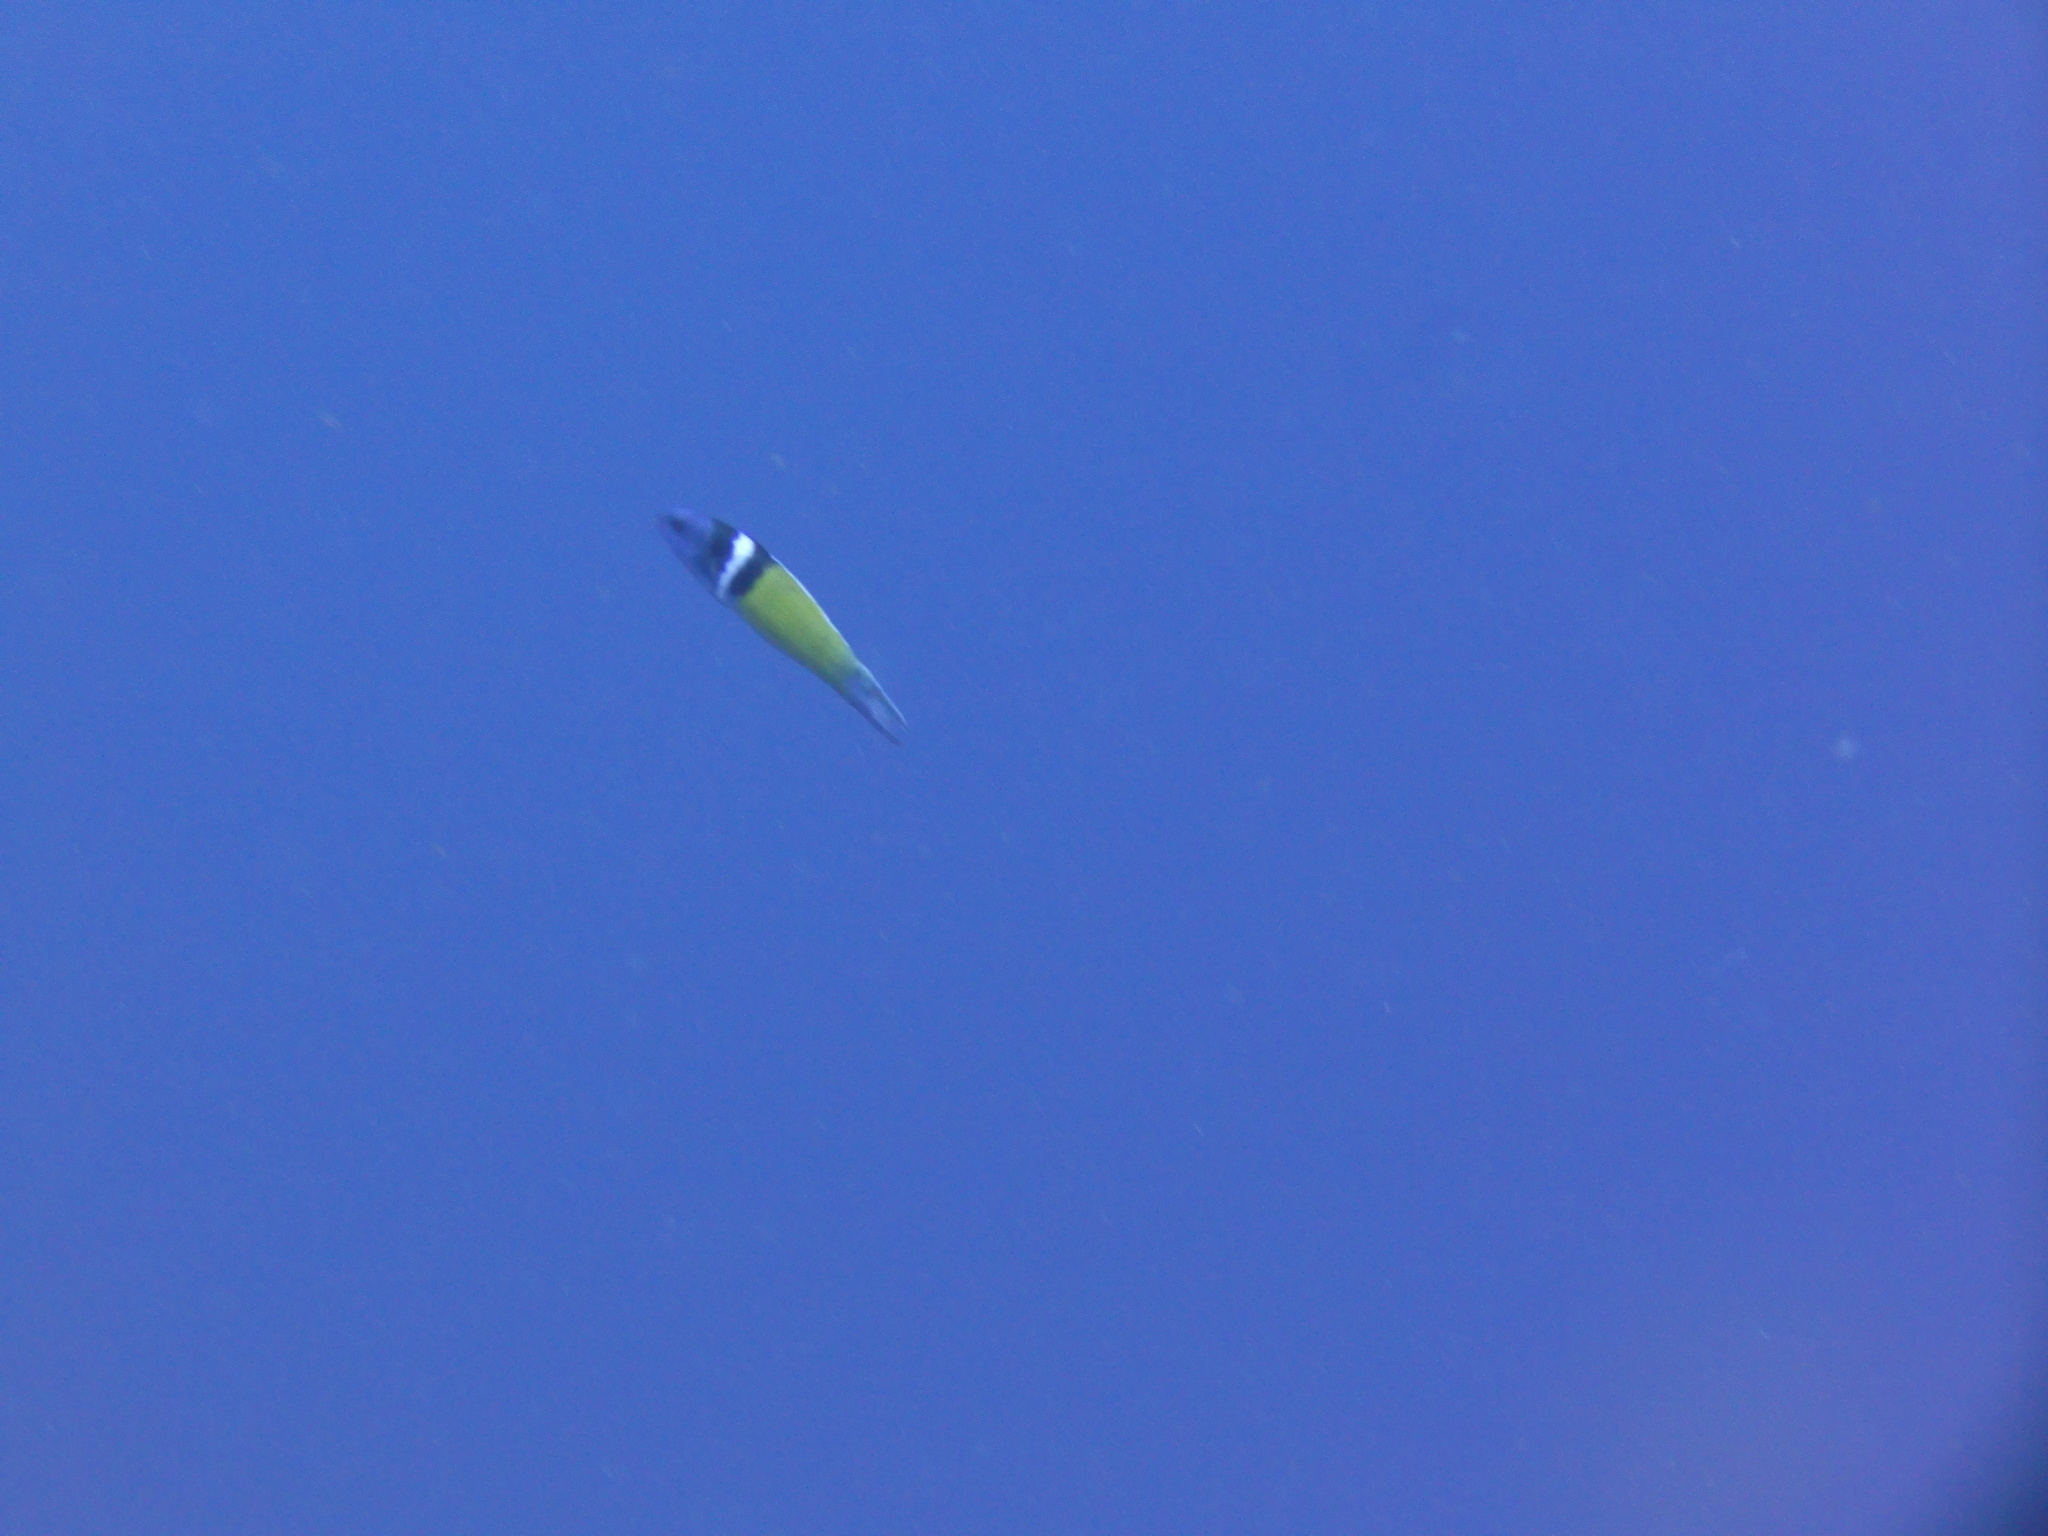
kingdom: Animalia
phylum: Chordata
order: Perciformes
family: Labridae
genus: Thalassoma
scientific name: Thalassoma bifasciatum
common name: Bluehead wrasse
